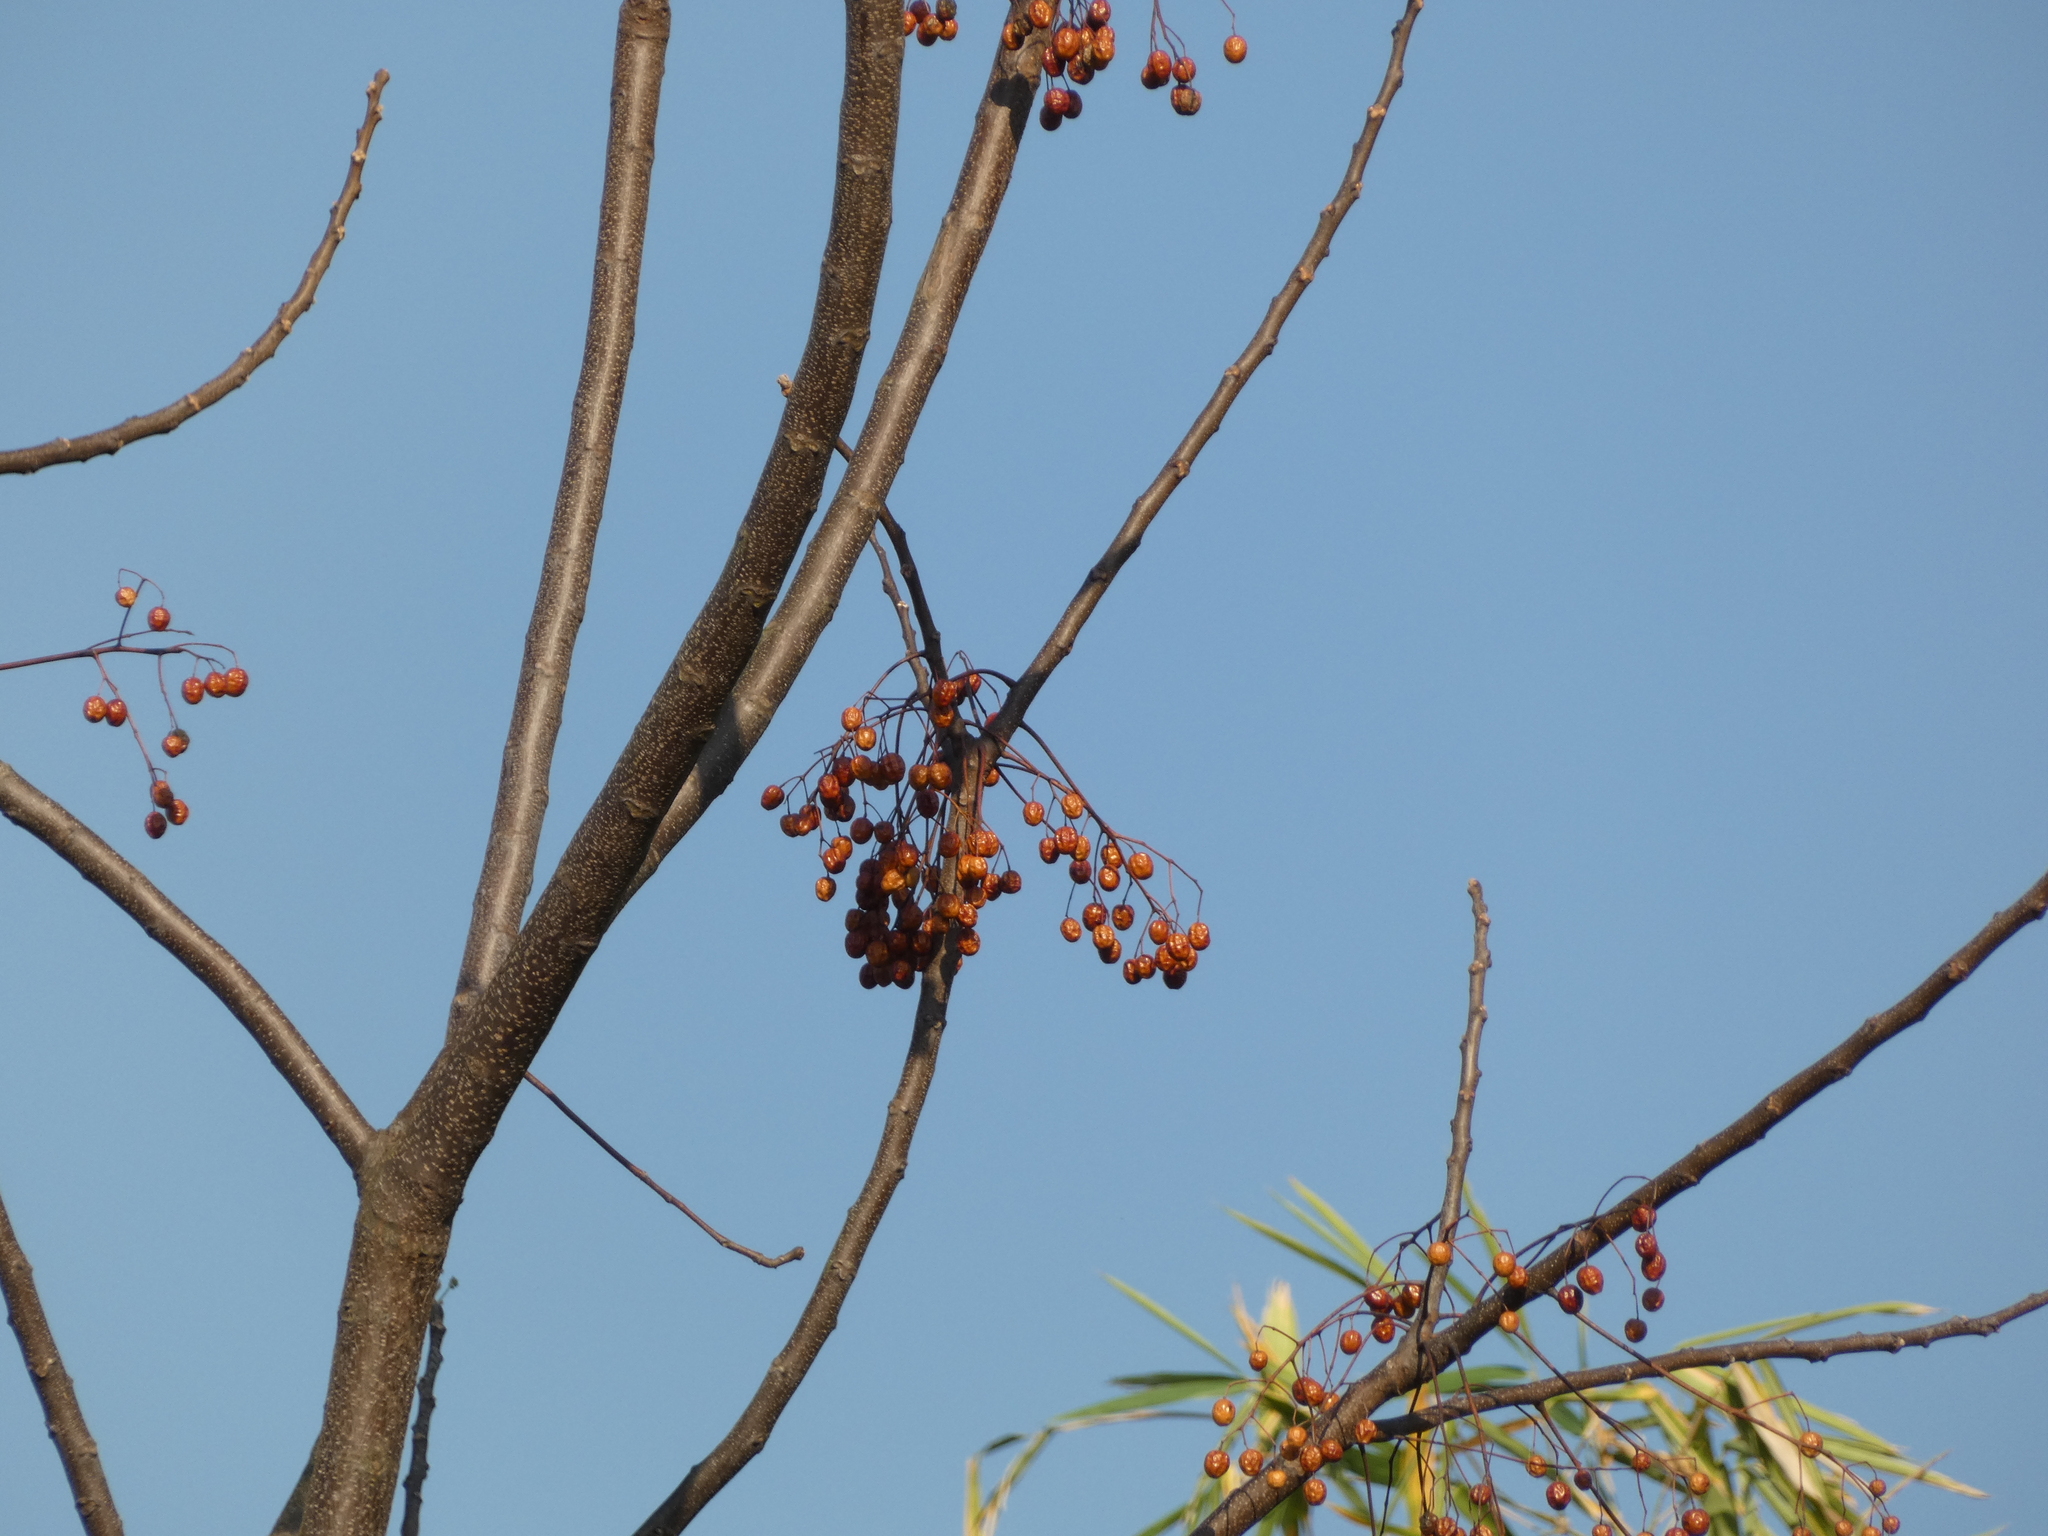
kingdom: Plantae
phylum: Tracheophyta
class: Magnoliopsida
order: Sapindales
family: Meliaceae
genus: Melia
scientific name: Melia azedarach
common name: Chinaberrytree
